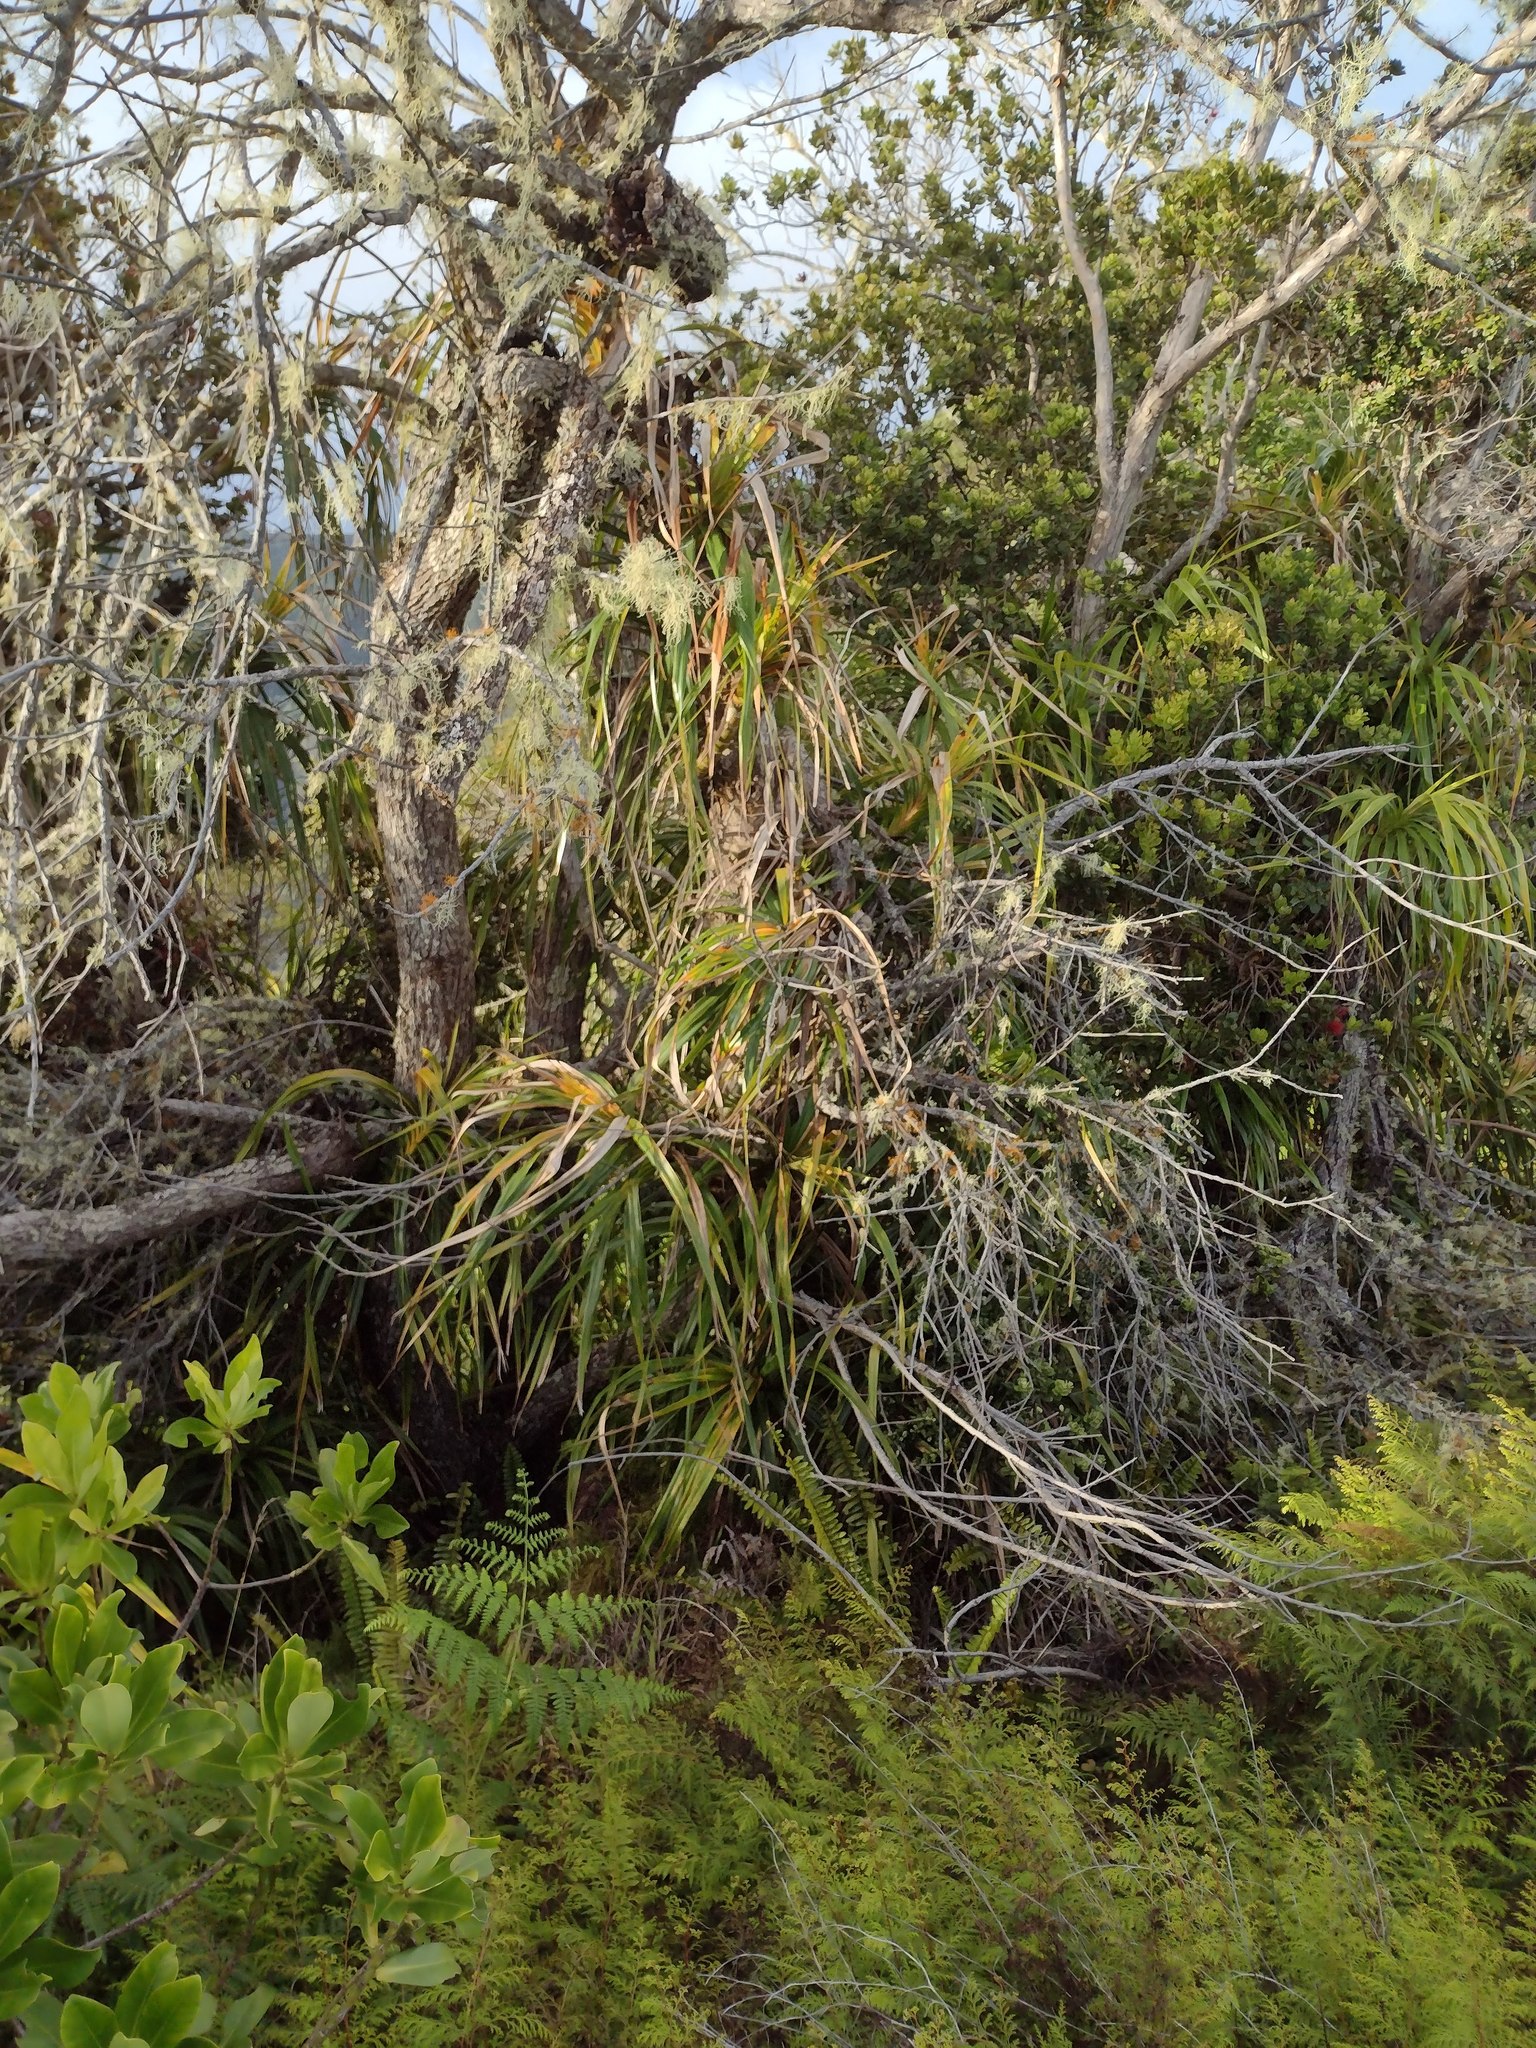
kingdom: Plantae
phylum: Tracheophyta
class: Liliopsida
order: Pandanales
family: Pandanaceae
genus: Freycinetia
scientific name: Freycinetia arborea
